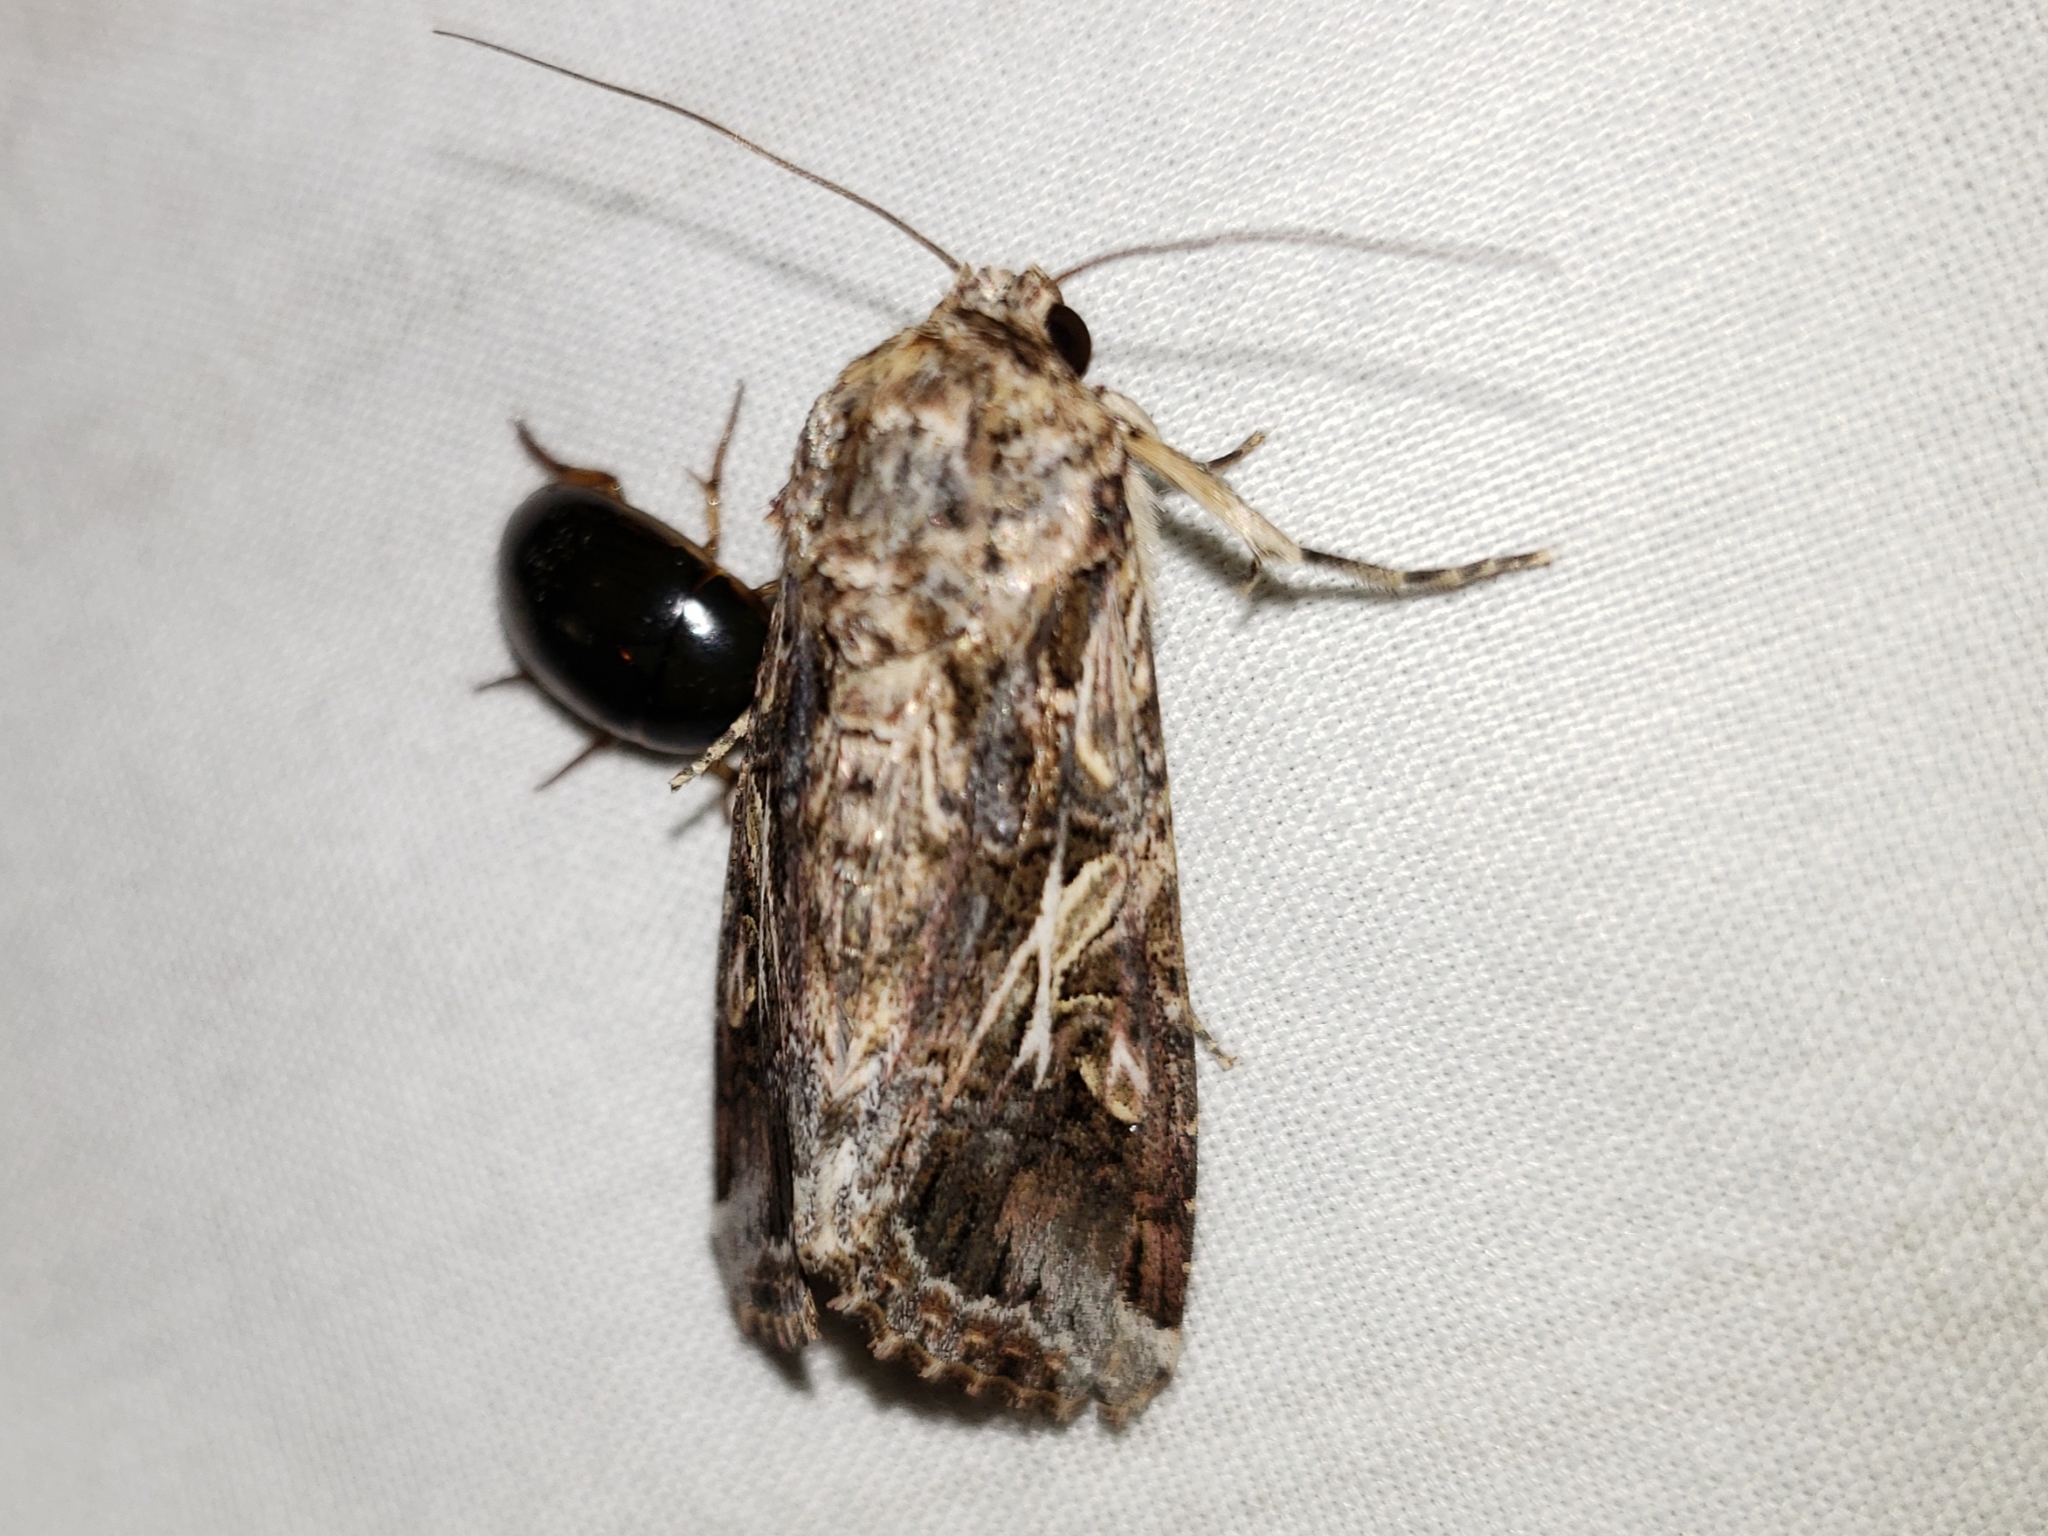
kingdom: Animalia
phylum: Arthropoda
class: Insecta
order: Coleoptera
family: Hydrophilidae
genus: Tropisternus
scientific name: Tropisternus collaris
